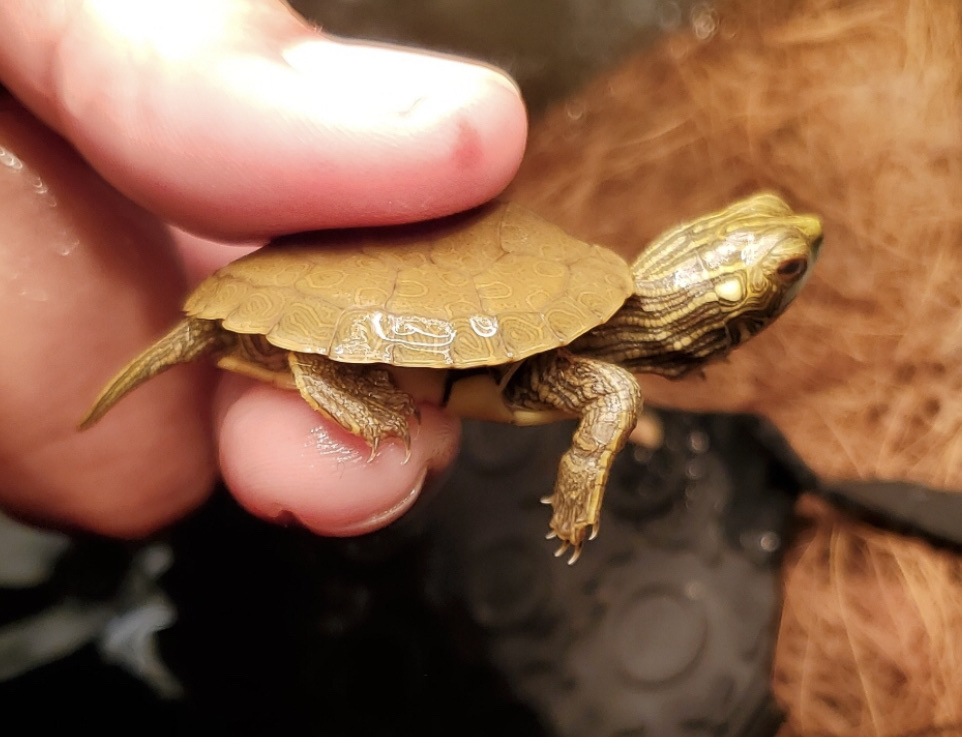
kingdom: Animalia
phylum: Chordata
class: Testudines
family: Emydidae
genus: Graptemys
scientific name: Graptemys geographica
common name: Common map turtle
